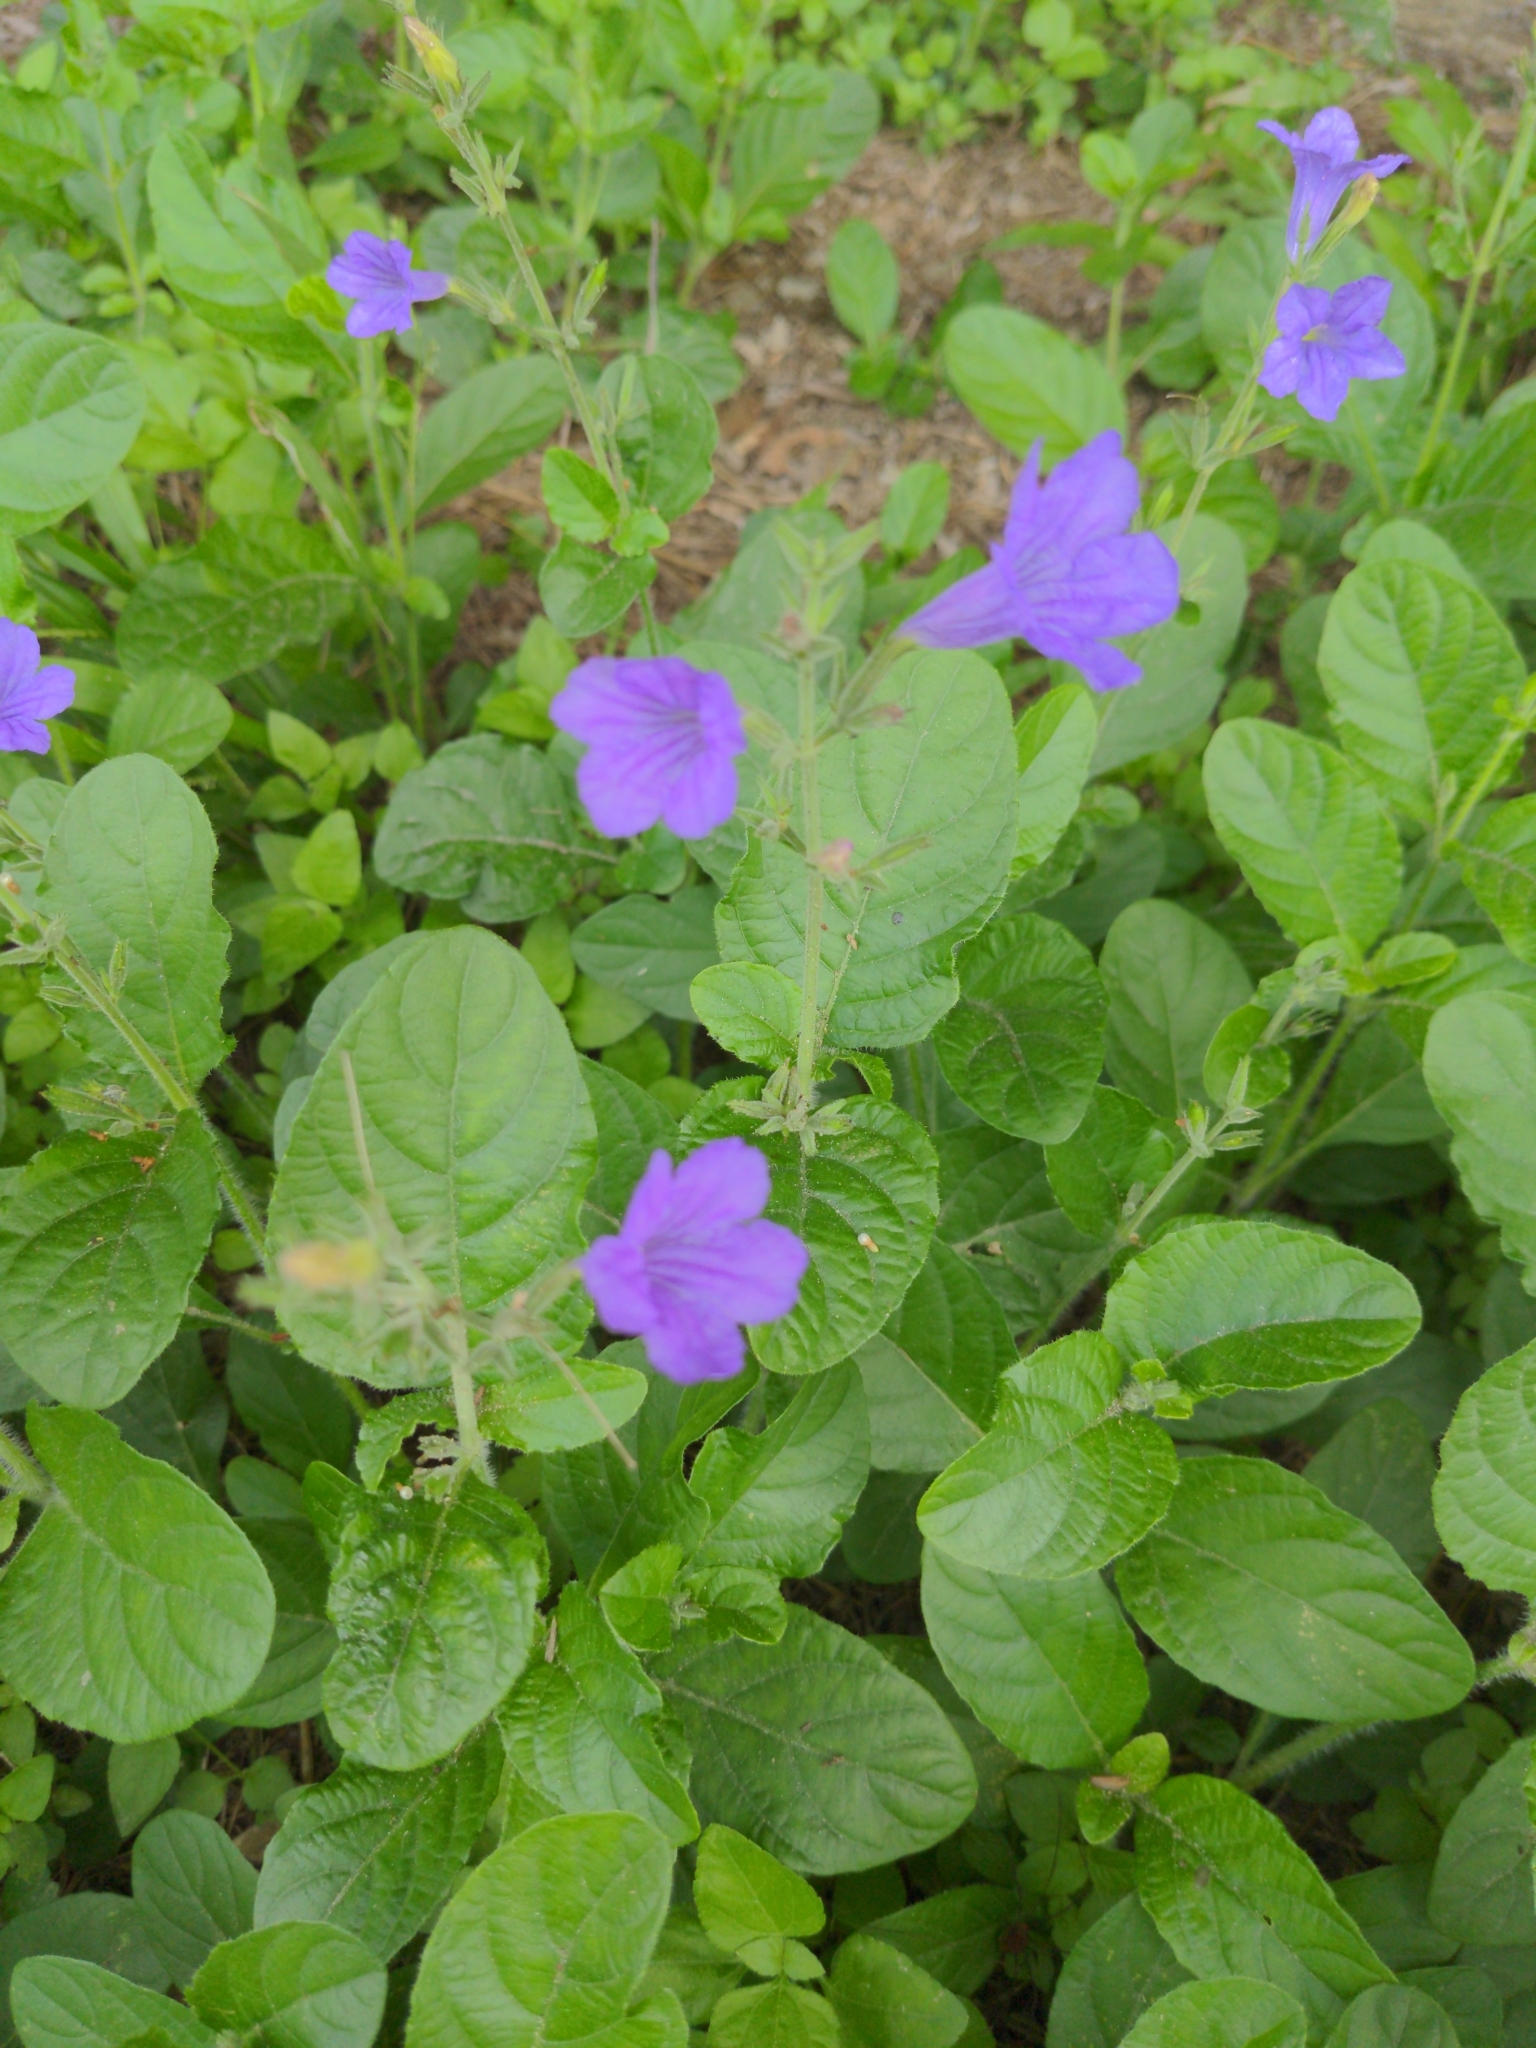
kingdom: Plantae
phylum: Tracheophyta
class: Magnoliopsida
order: Lamiales
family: Acanthaceae
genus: Ruellia
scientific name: Ruellia ciliatiflora
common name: Hairyflower wild petunia
